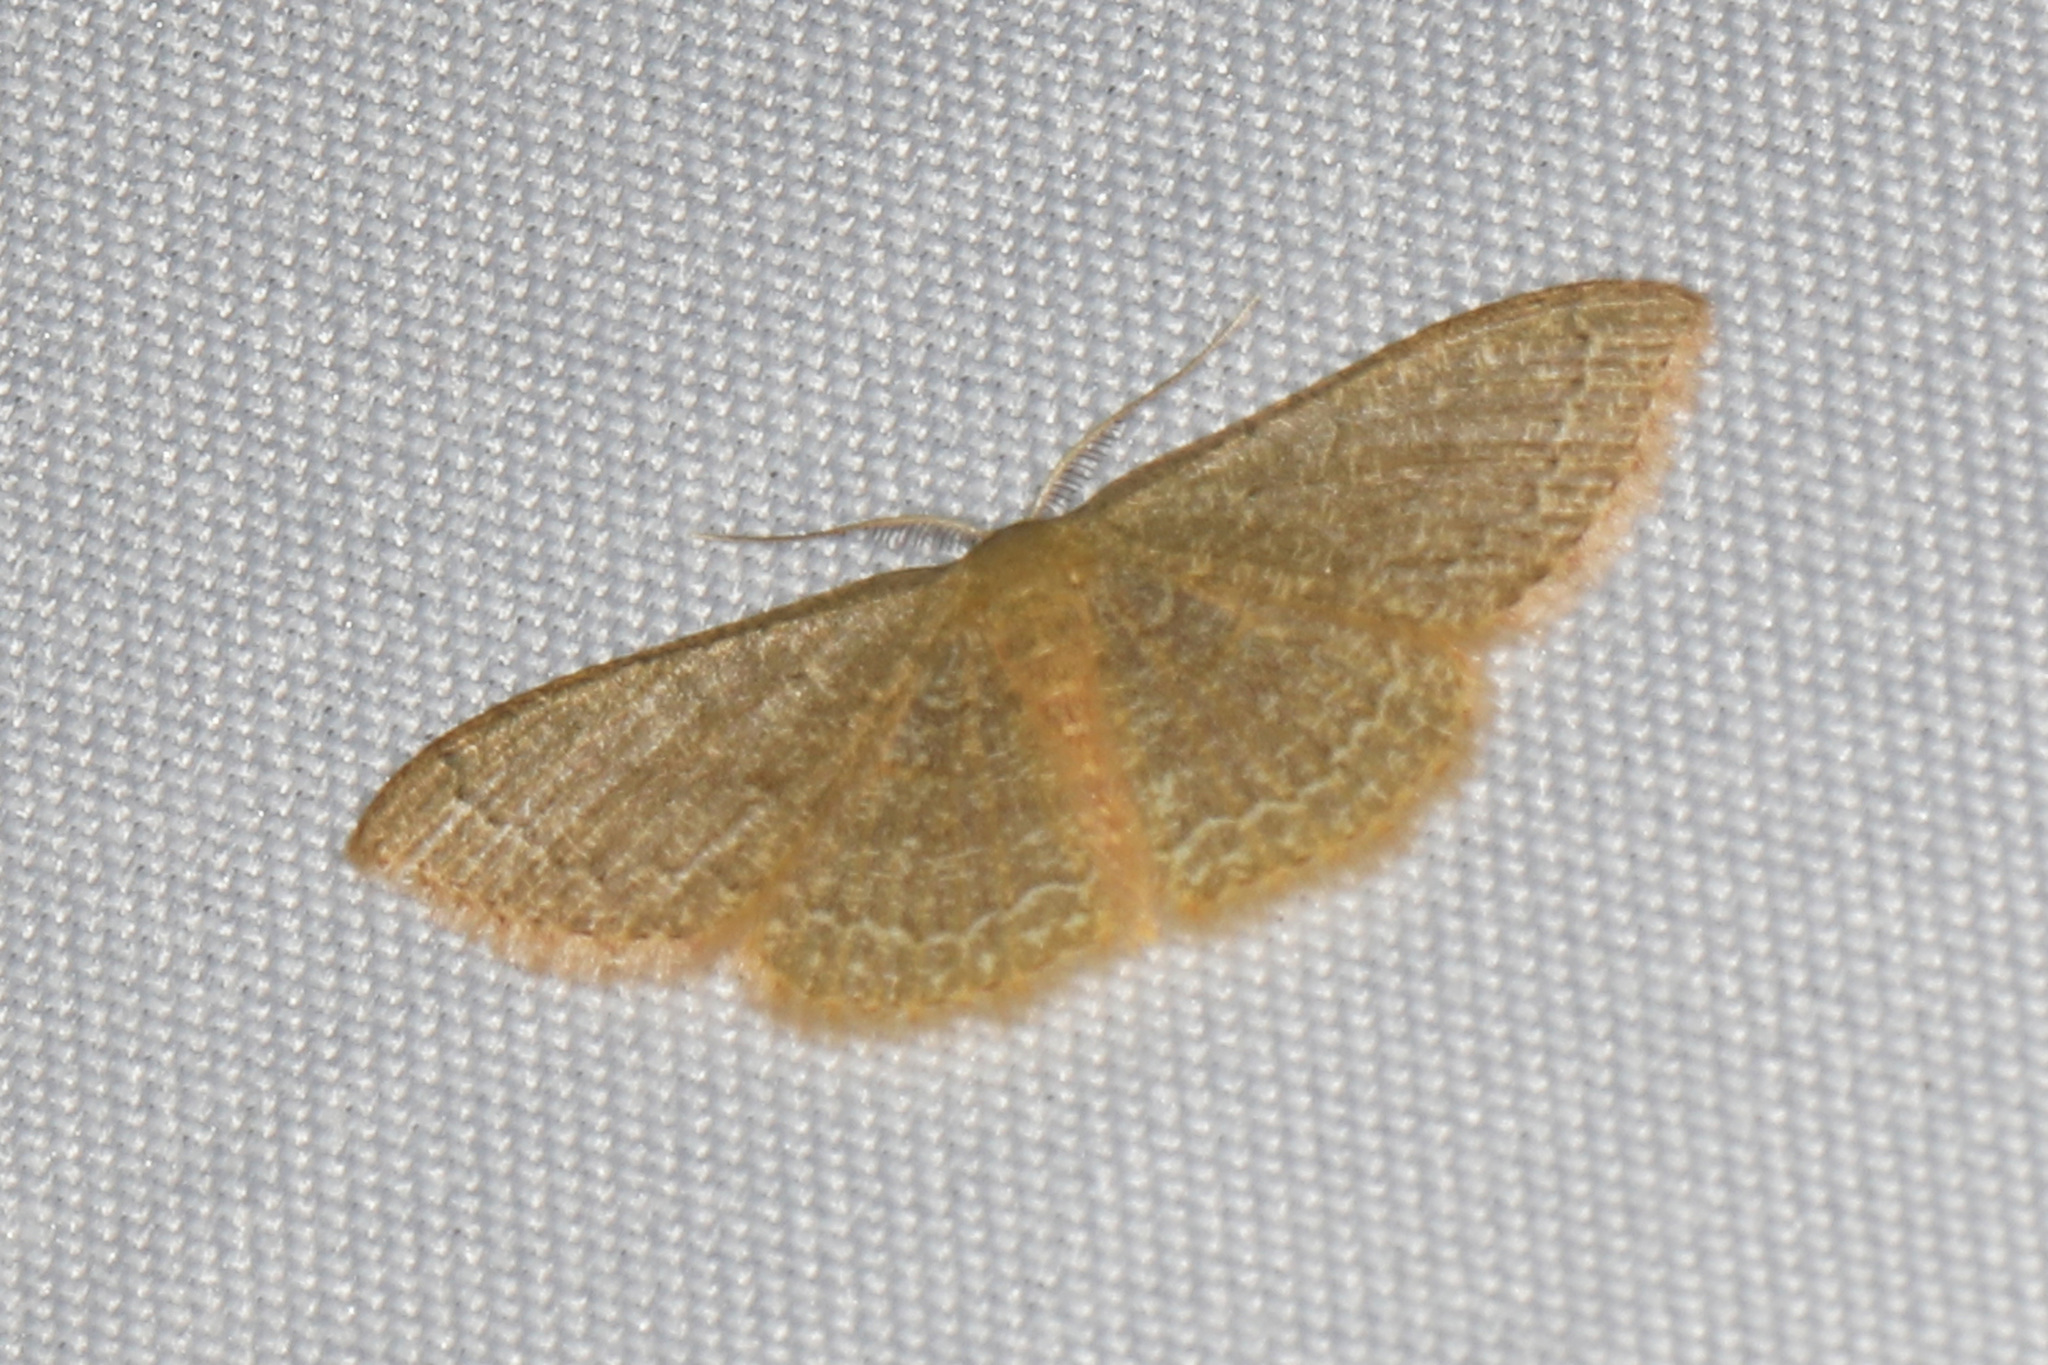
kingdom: Animalia
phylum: Arthropoda
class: Insecta
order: Lepidoptera
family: Geometridae
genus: Pleuroprucha
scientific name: Pleuroprucha insulsaria
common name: Common tan wave
